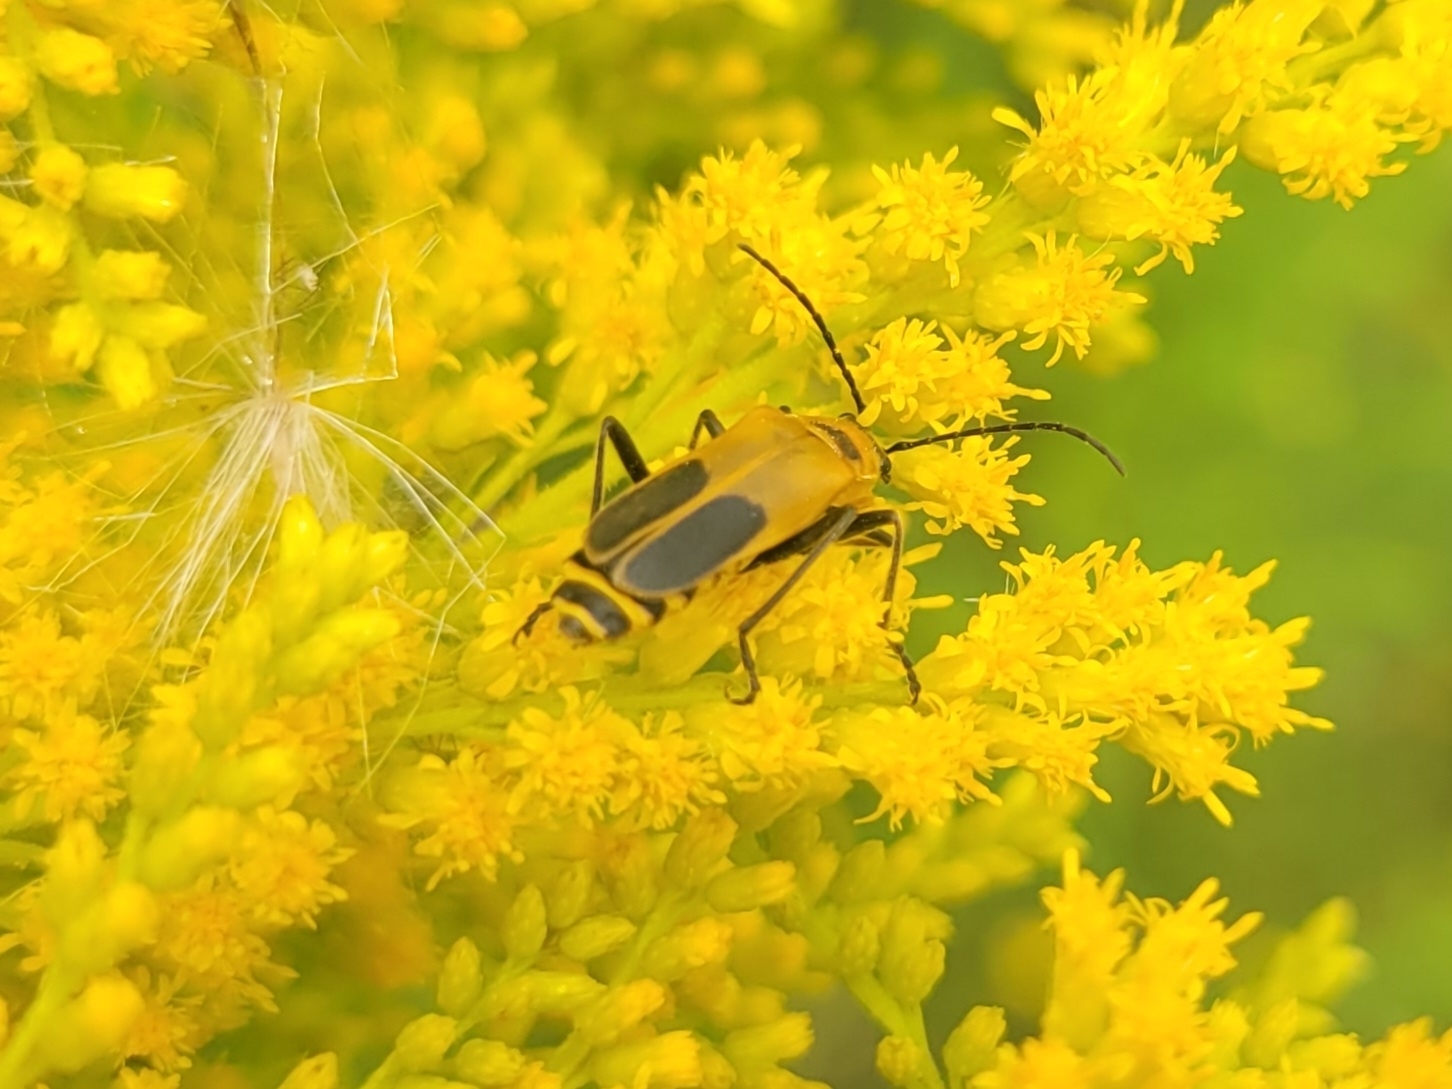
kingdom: Animalia
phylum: Arthropoda
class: Insecta
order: Coleoptera
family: Cantharidae
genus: Chauliognathus
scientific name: Chauliognathus pensylvanicus
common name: Goldenrod soldier beetle
